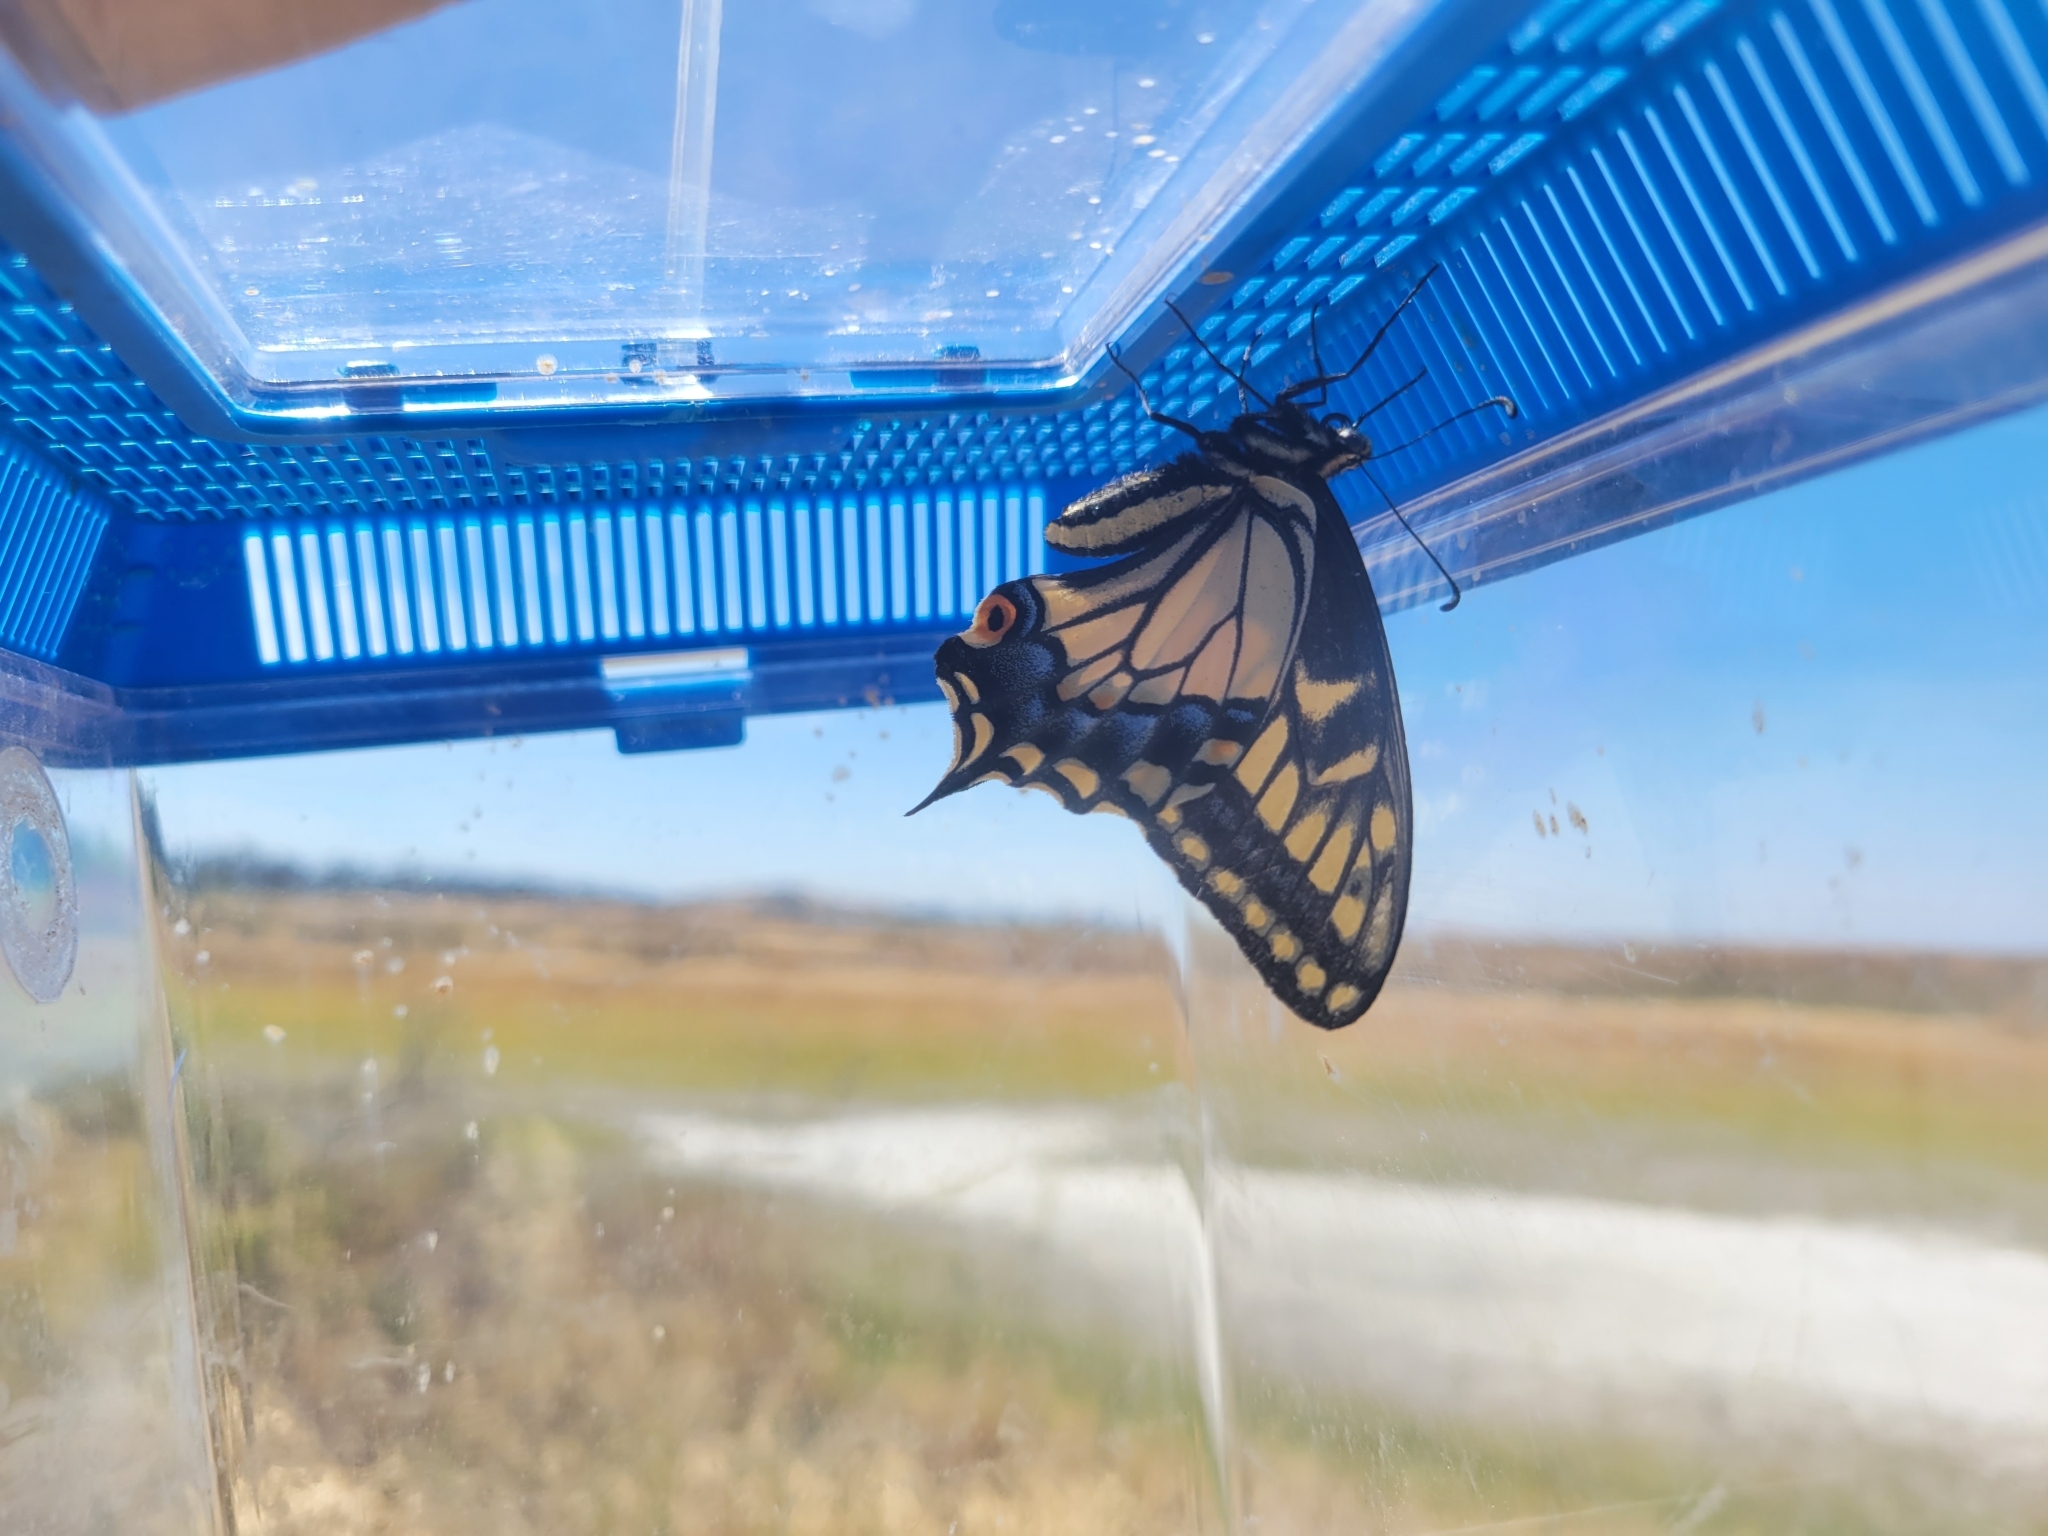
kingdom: Animalia
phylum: Arthropoda
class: Insecta
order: Lepidoptera
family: Papilionidae
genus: Papilio
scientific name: Papilio zelicaon
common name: Anise swallowtail
